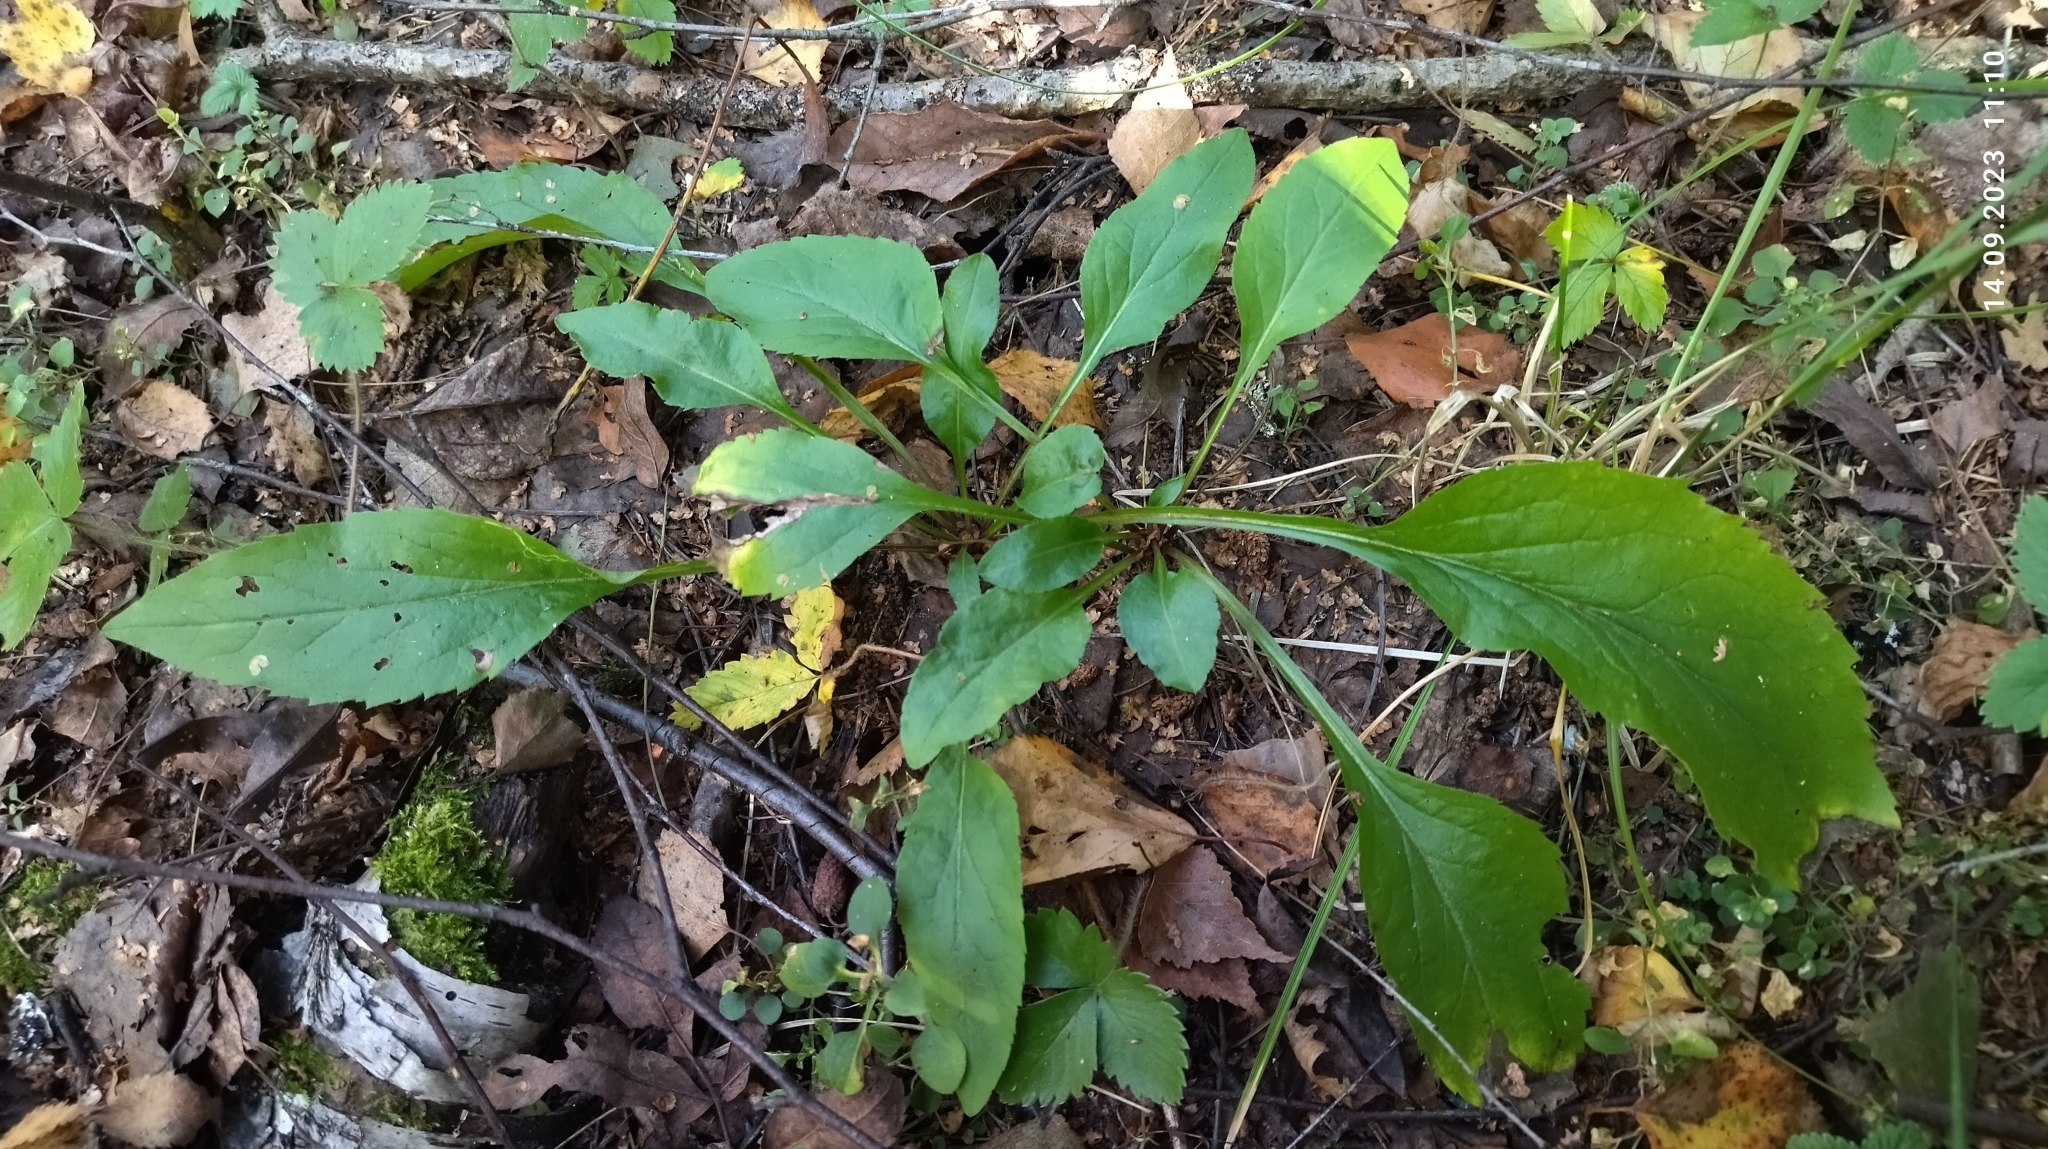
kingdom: Plantae
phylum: Tracheophyta
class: Magnoliopsida
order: Asterales
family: Asteraceae
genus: Solidago
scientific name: Solidago virgaurea
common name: Goldenrod
